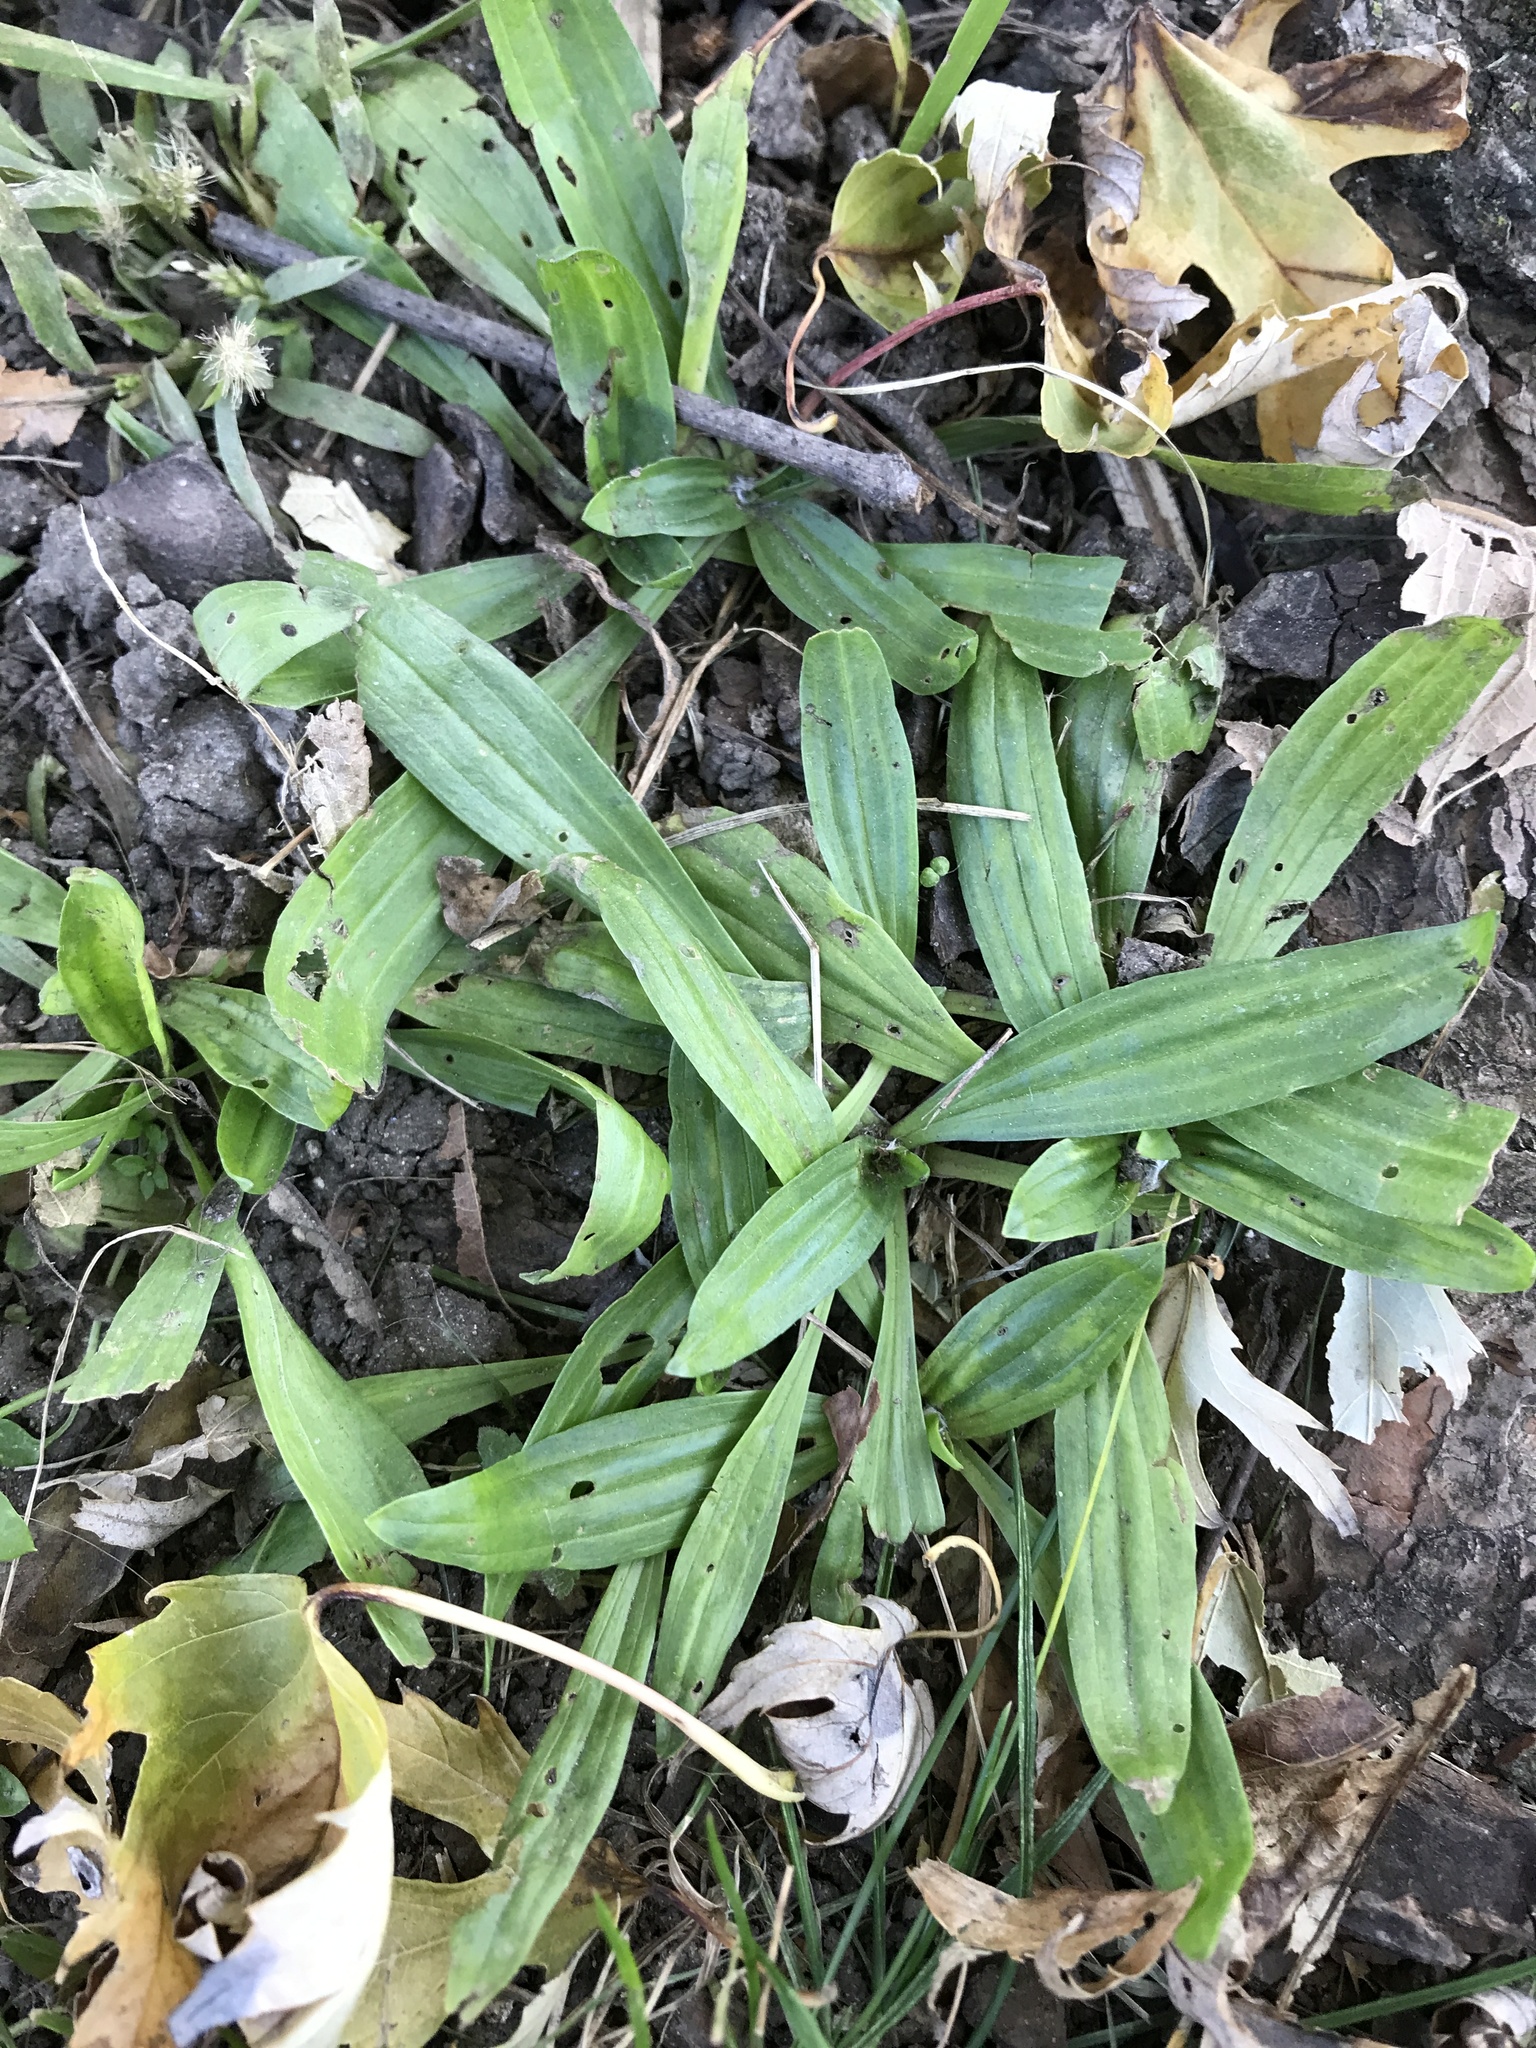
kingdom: Plantae
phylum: Tracheophyta
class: Magnoliopsida
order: Lamiales
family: Plantaginaceae
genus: Plantago
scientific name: Plantago lanceolata
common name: Ribwort plantain
